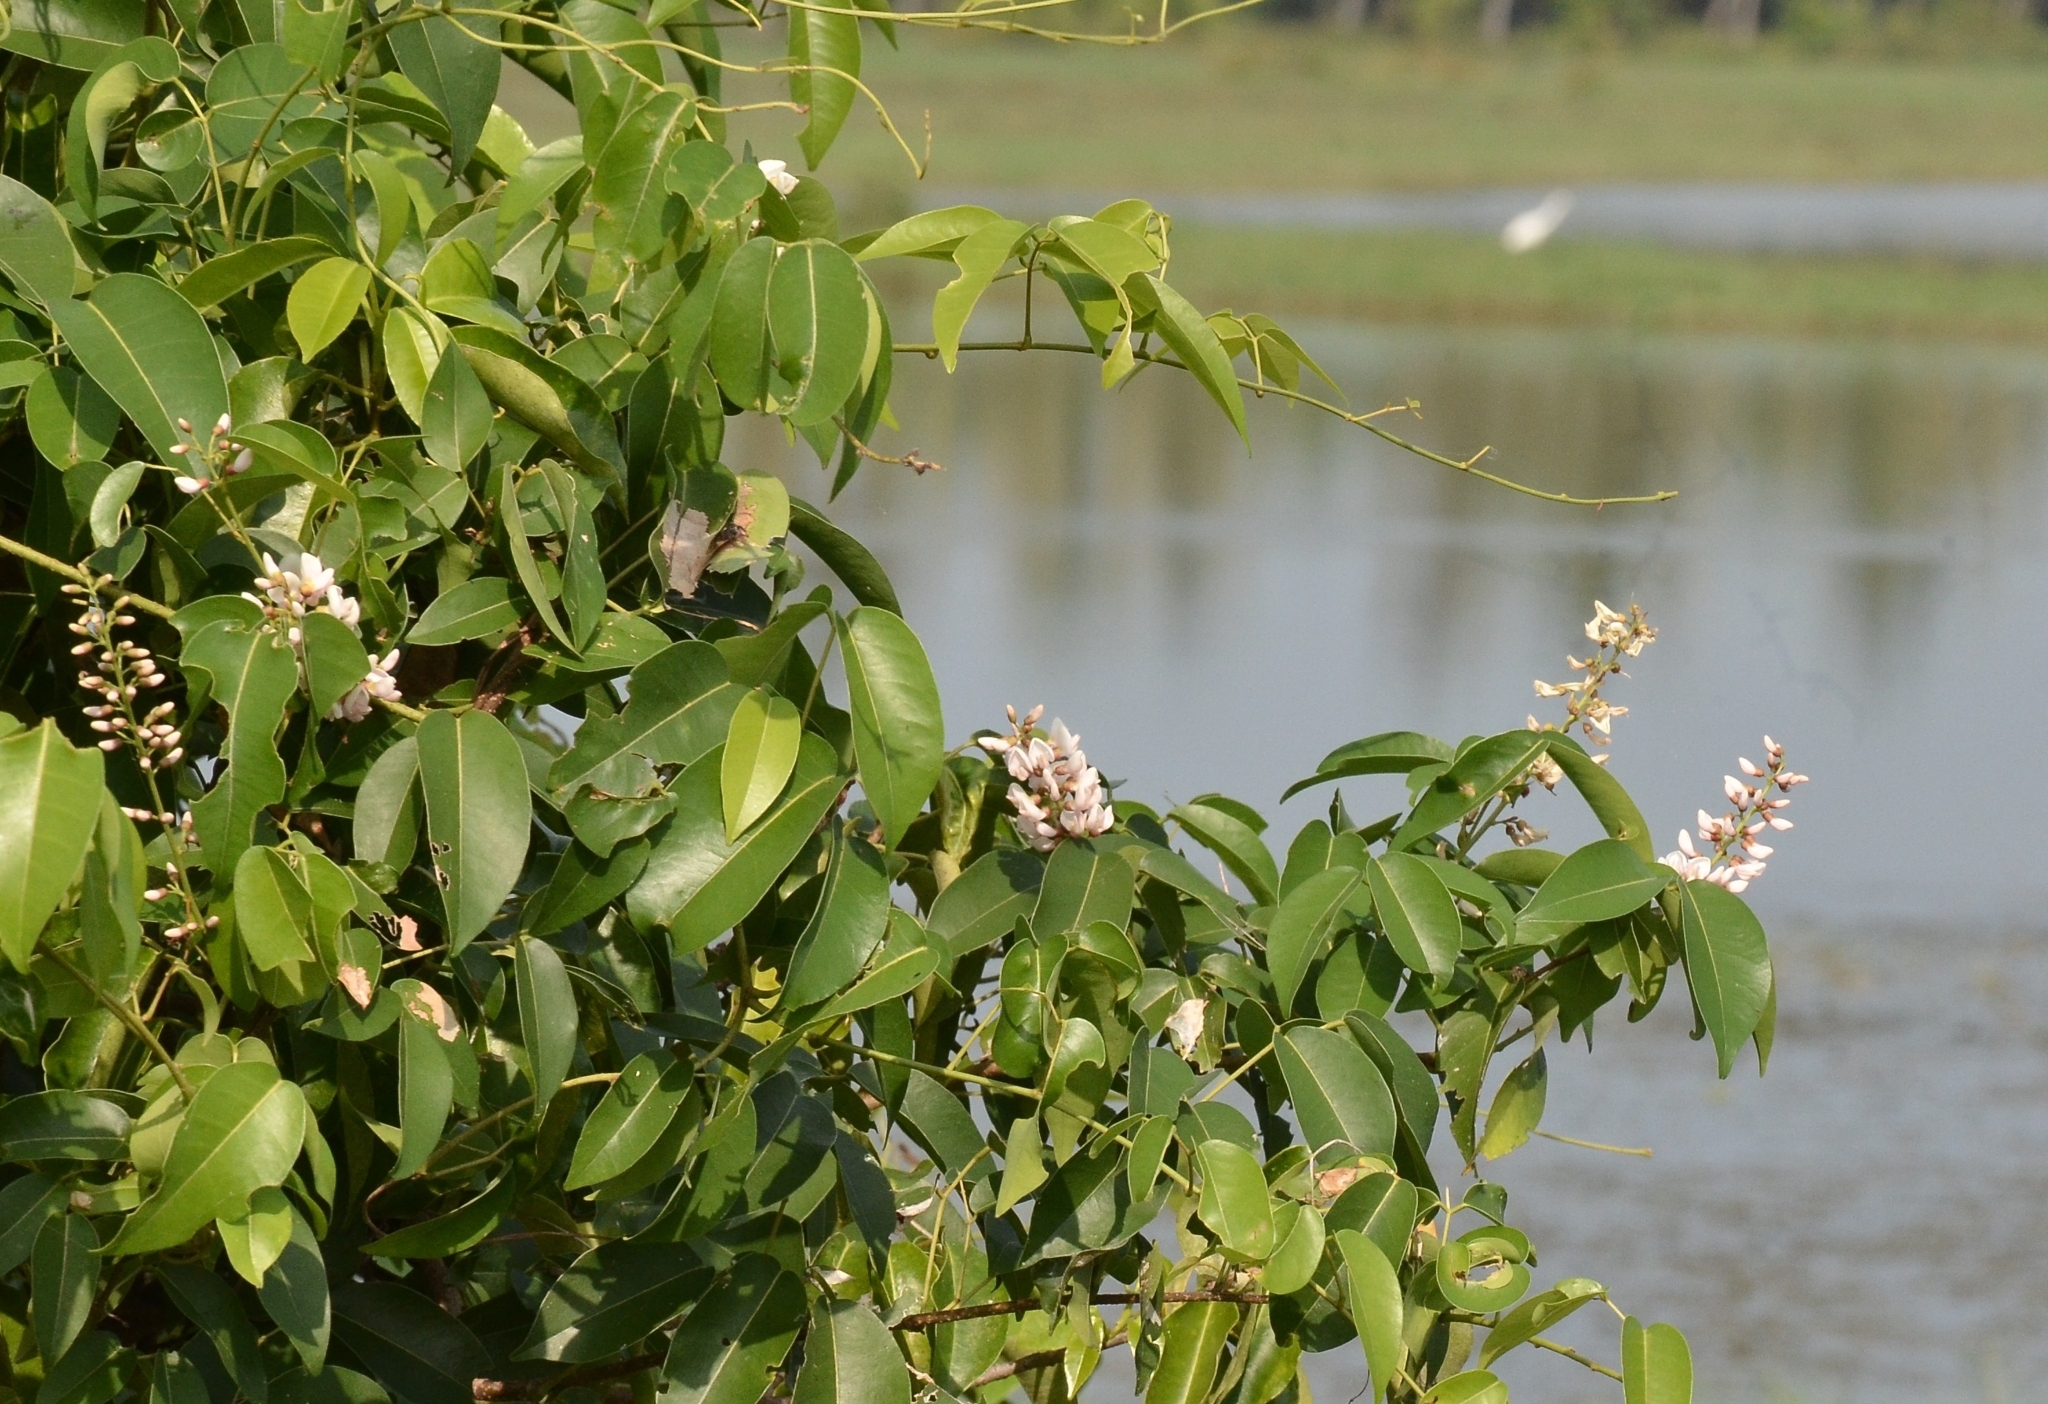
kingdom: Plantae
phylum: Tracheophyta
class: Magnoliopsida
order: Fabales
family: Fabaceae
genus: Derris
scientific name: Derris trifoliata
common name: Three-leaf derris
